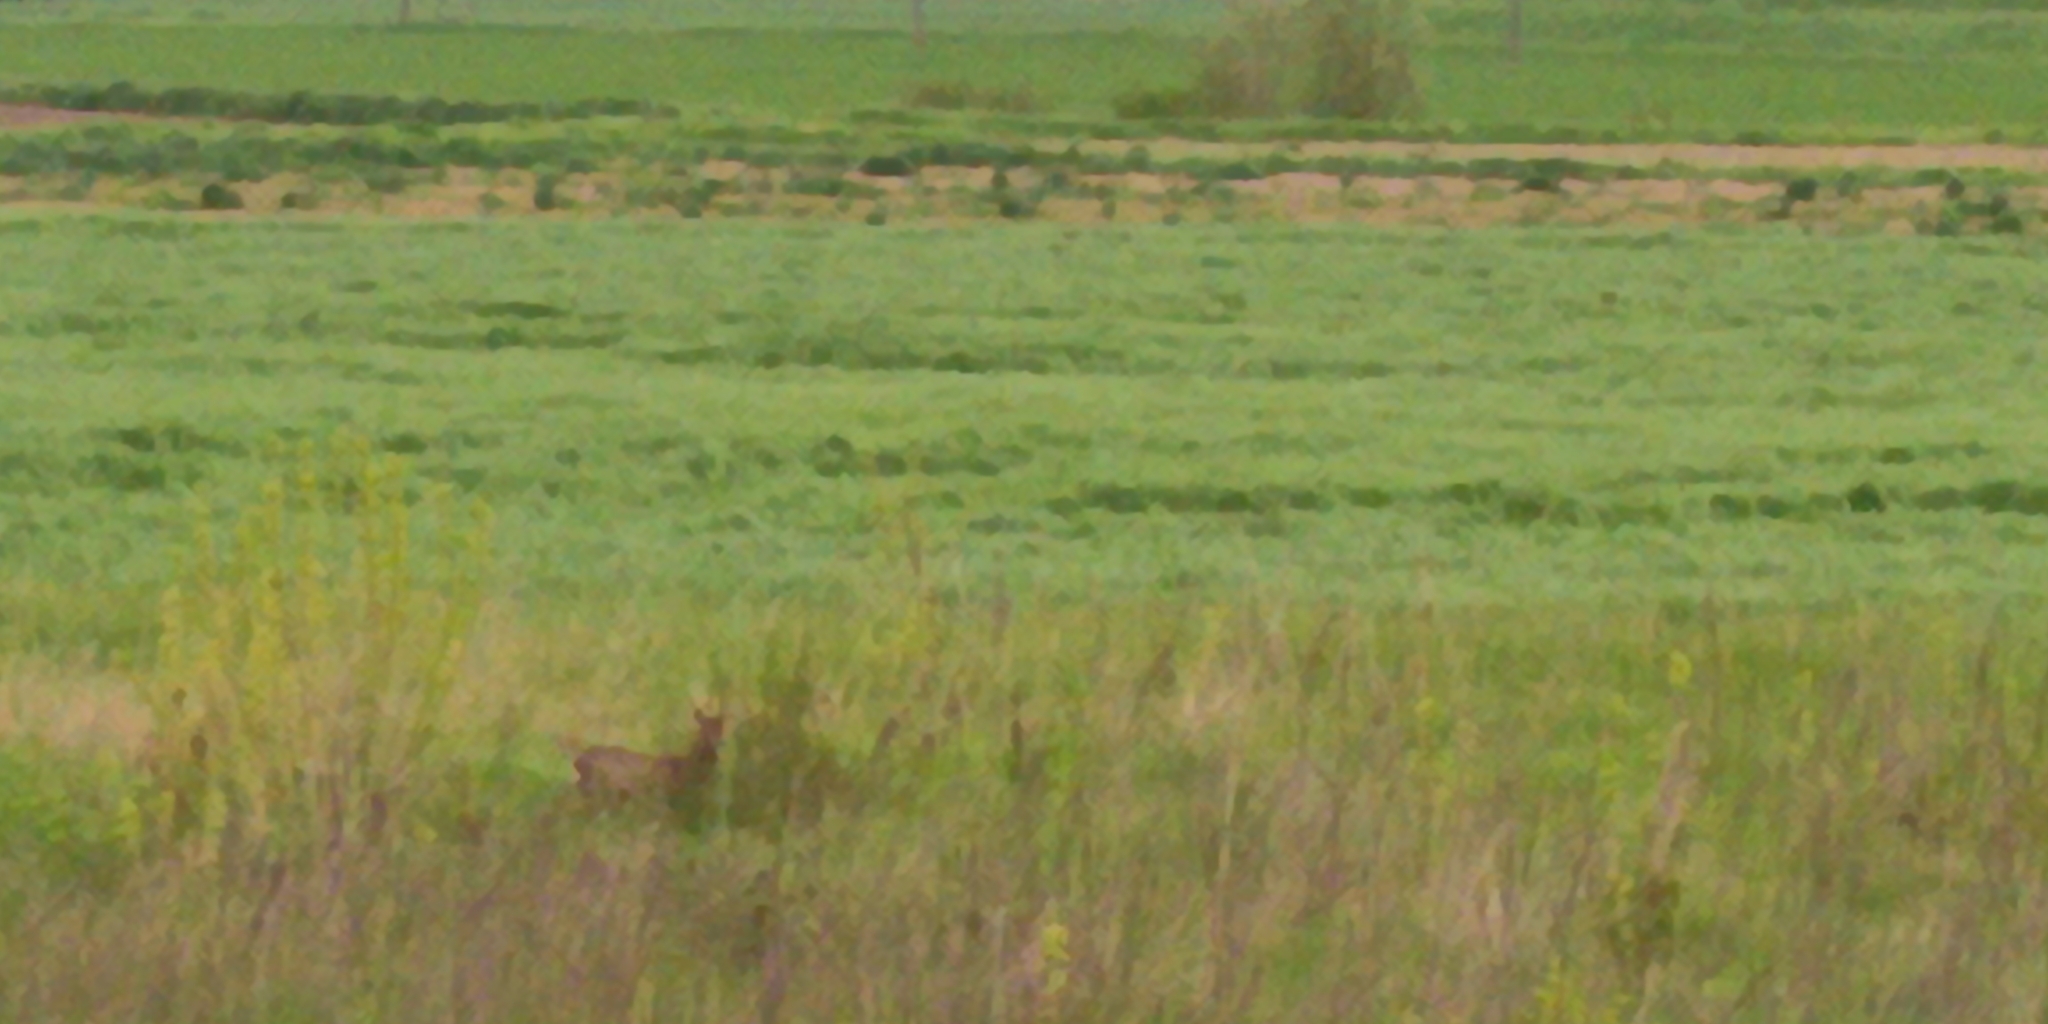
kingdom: Animalia
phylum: Chordata
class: Mammalia
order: Artiodactyla
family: Cervidae
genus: Capreolus
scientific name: Capreolus capreolus
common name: Western roe deer
